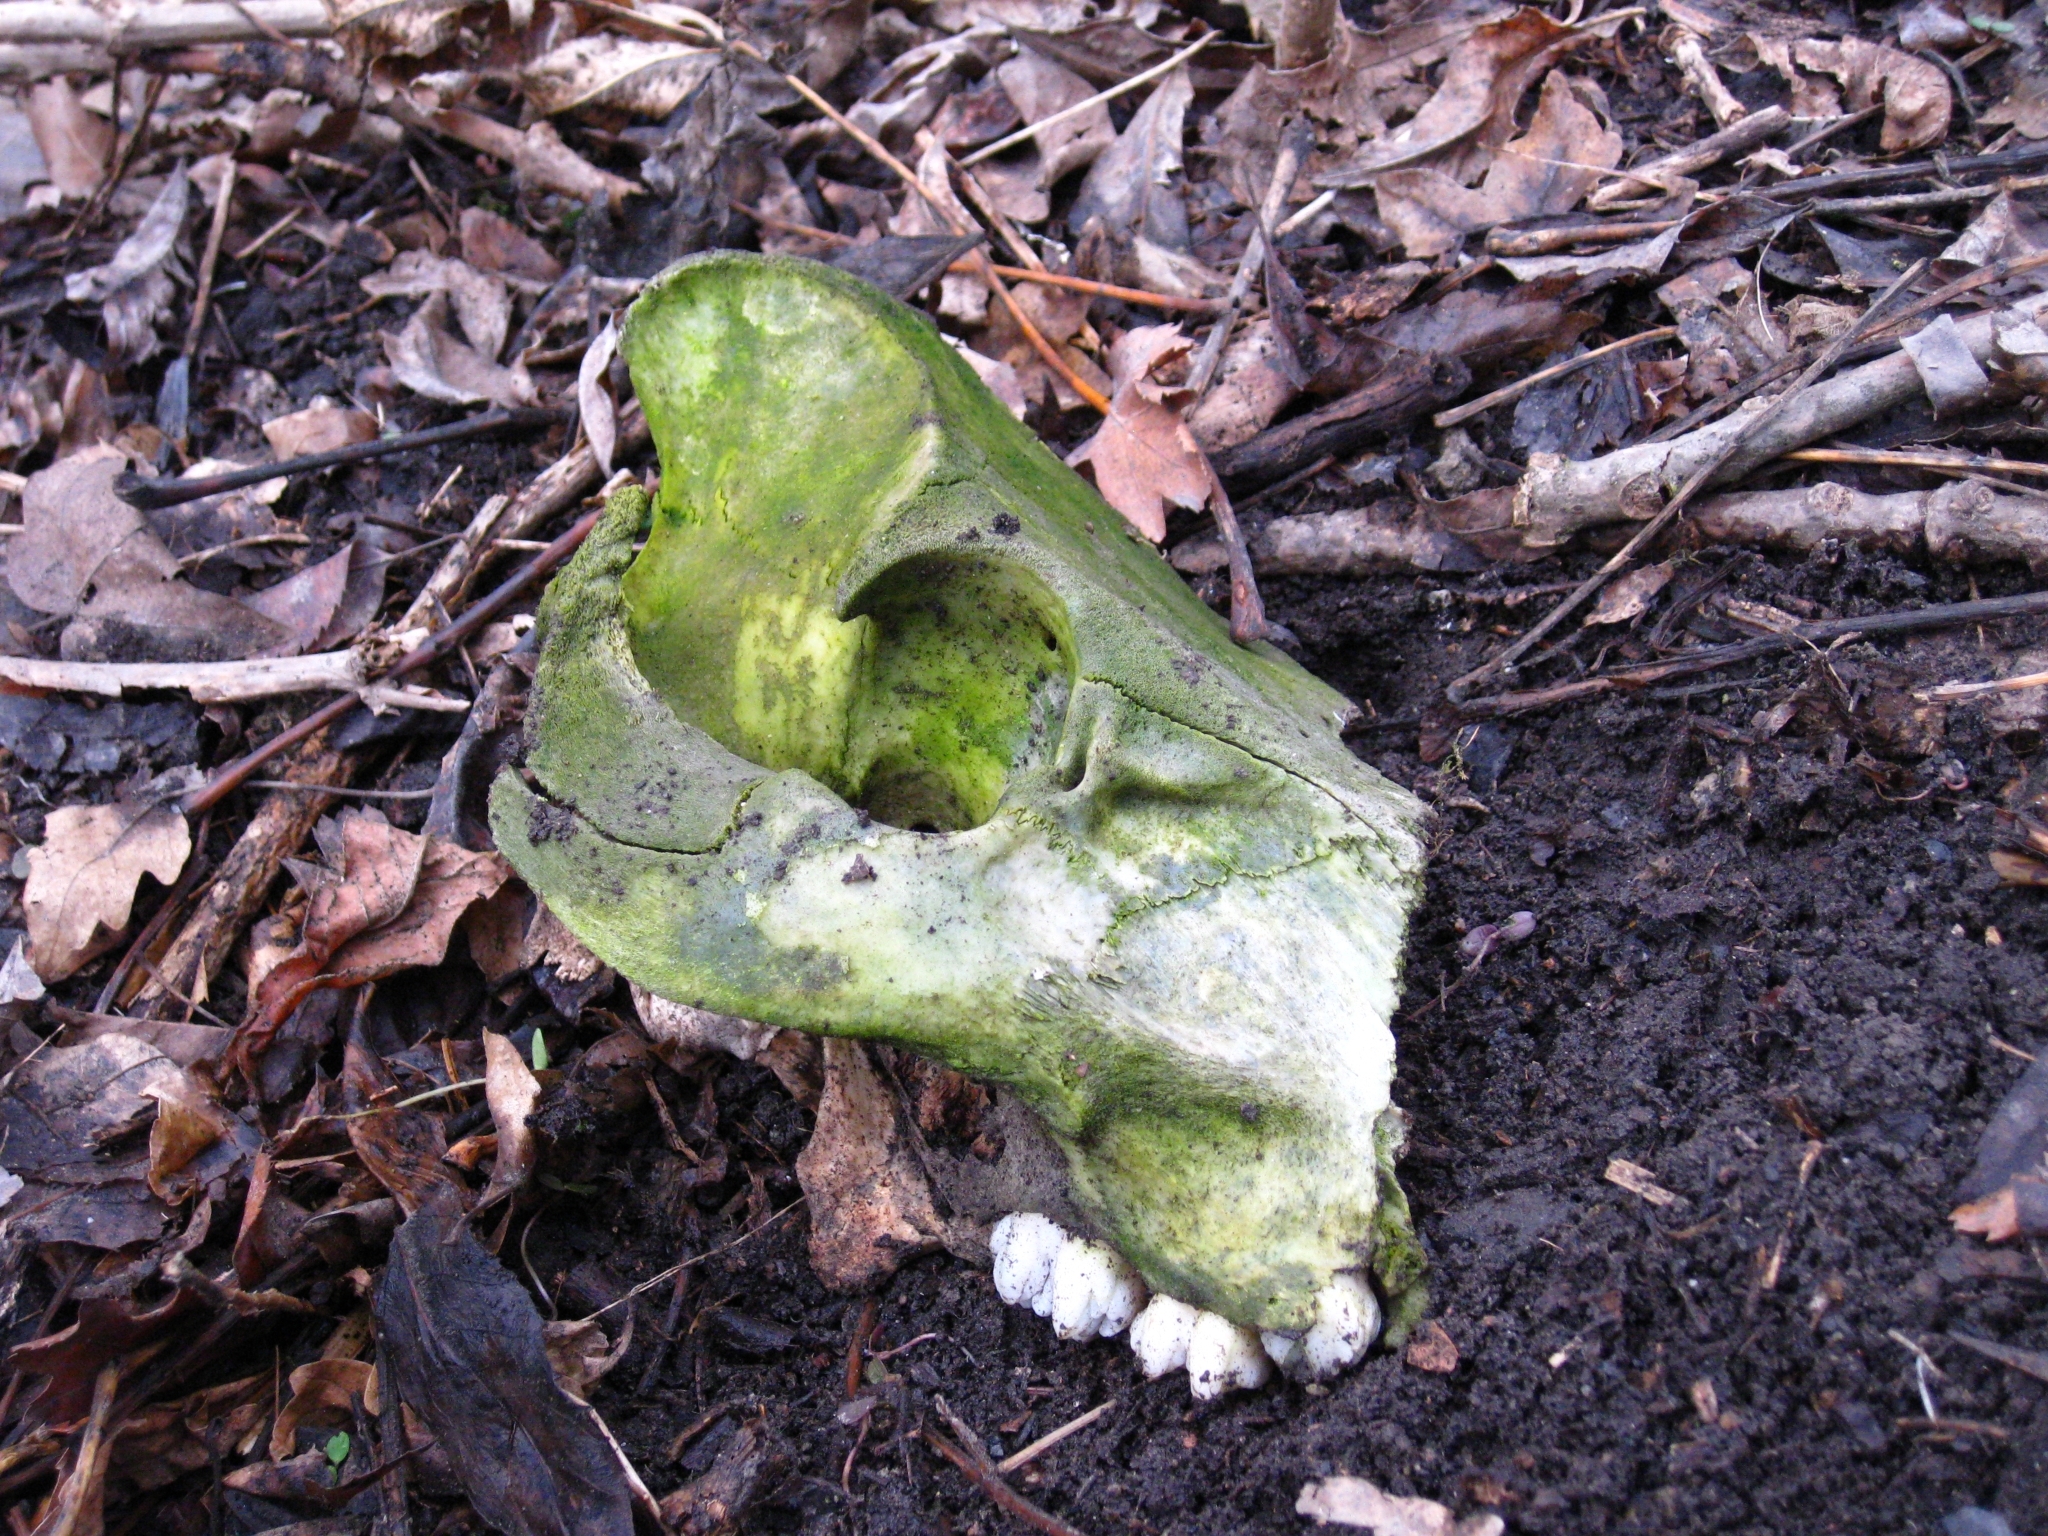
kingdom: Animalia
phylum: Chordata
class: Mammalia
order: Artiodactyla
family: Suidae
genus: Sus
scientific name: Sus scrofa
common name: Wild boar
